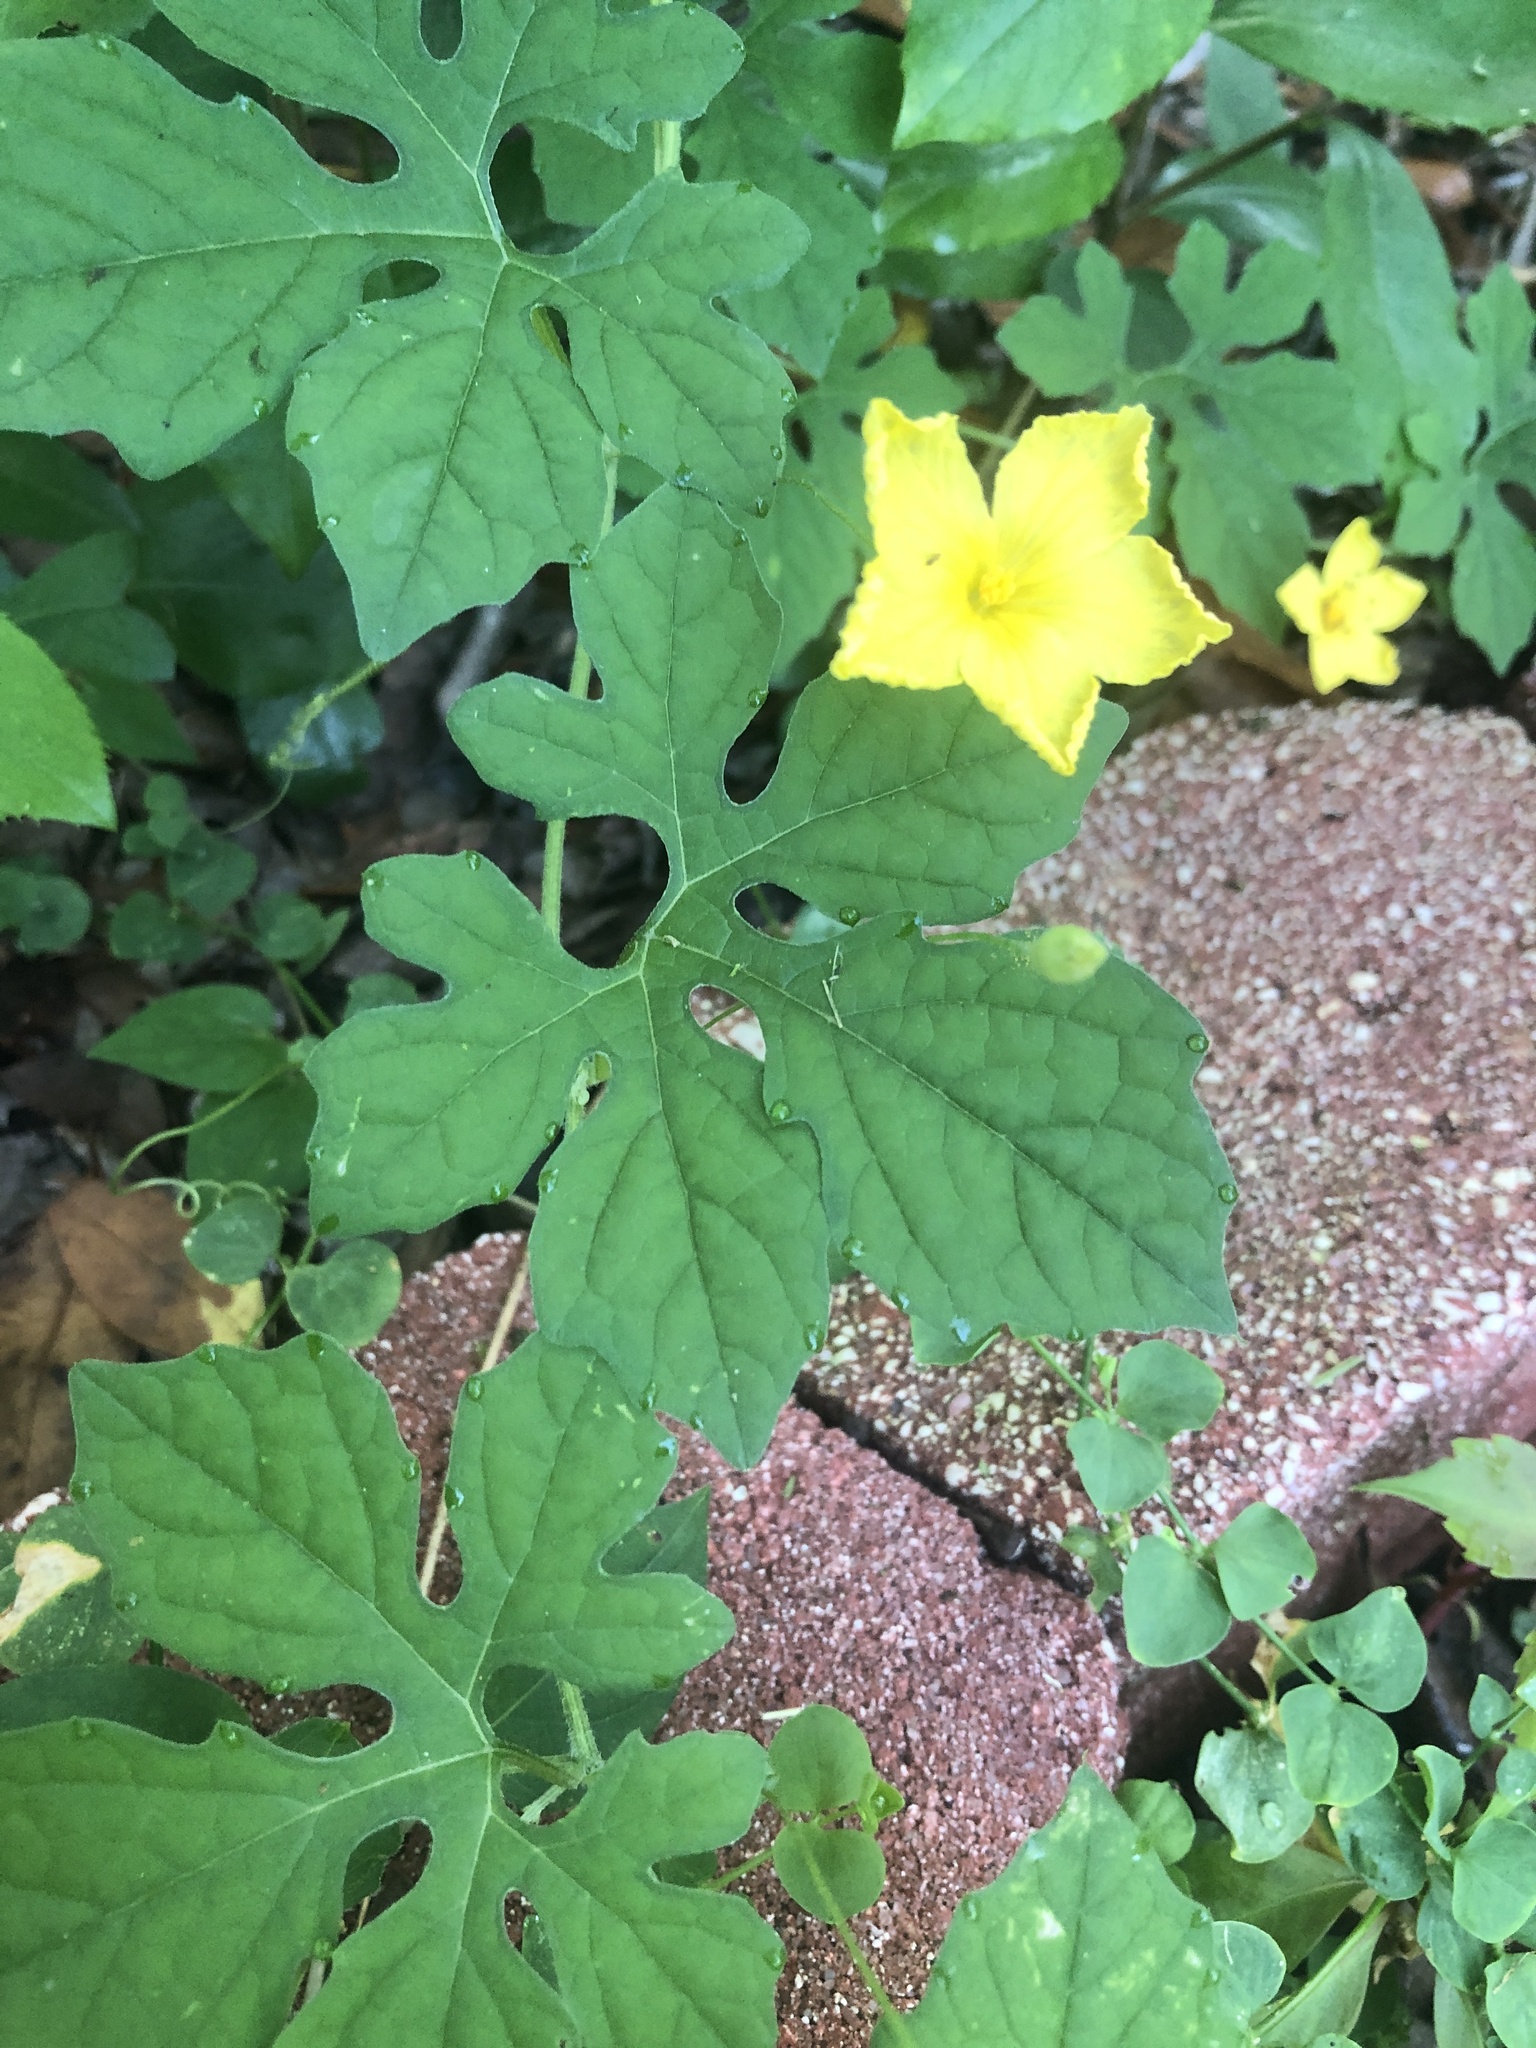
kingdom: Plantae
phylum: Tracheophyta
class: Magnoliopsida
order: Cucurbitales
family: Cucurbitaceae
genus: Momordica
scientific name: Momordica charantia
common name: Balsampear
